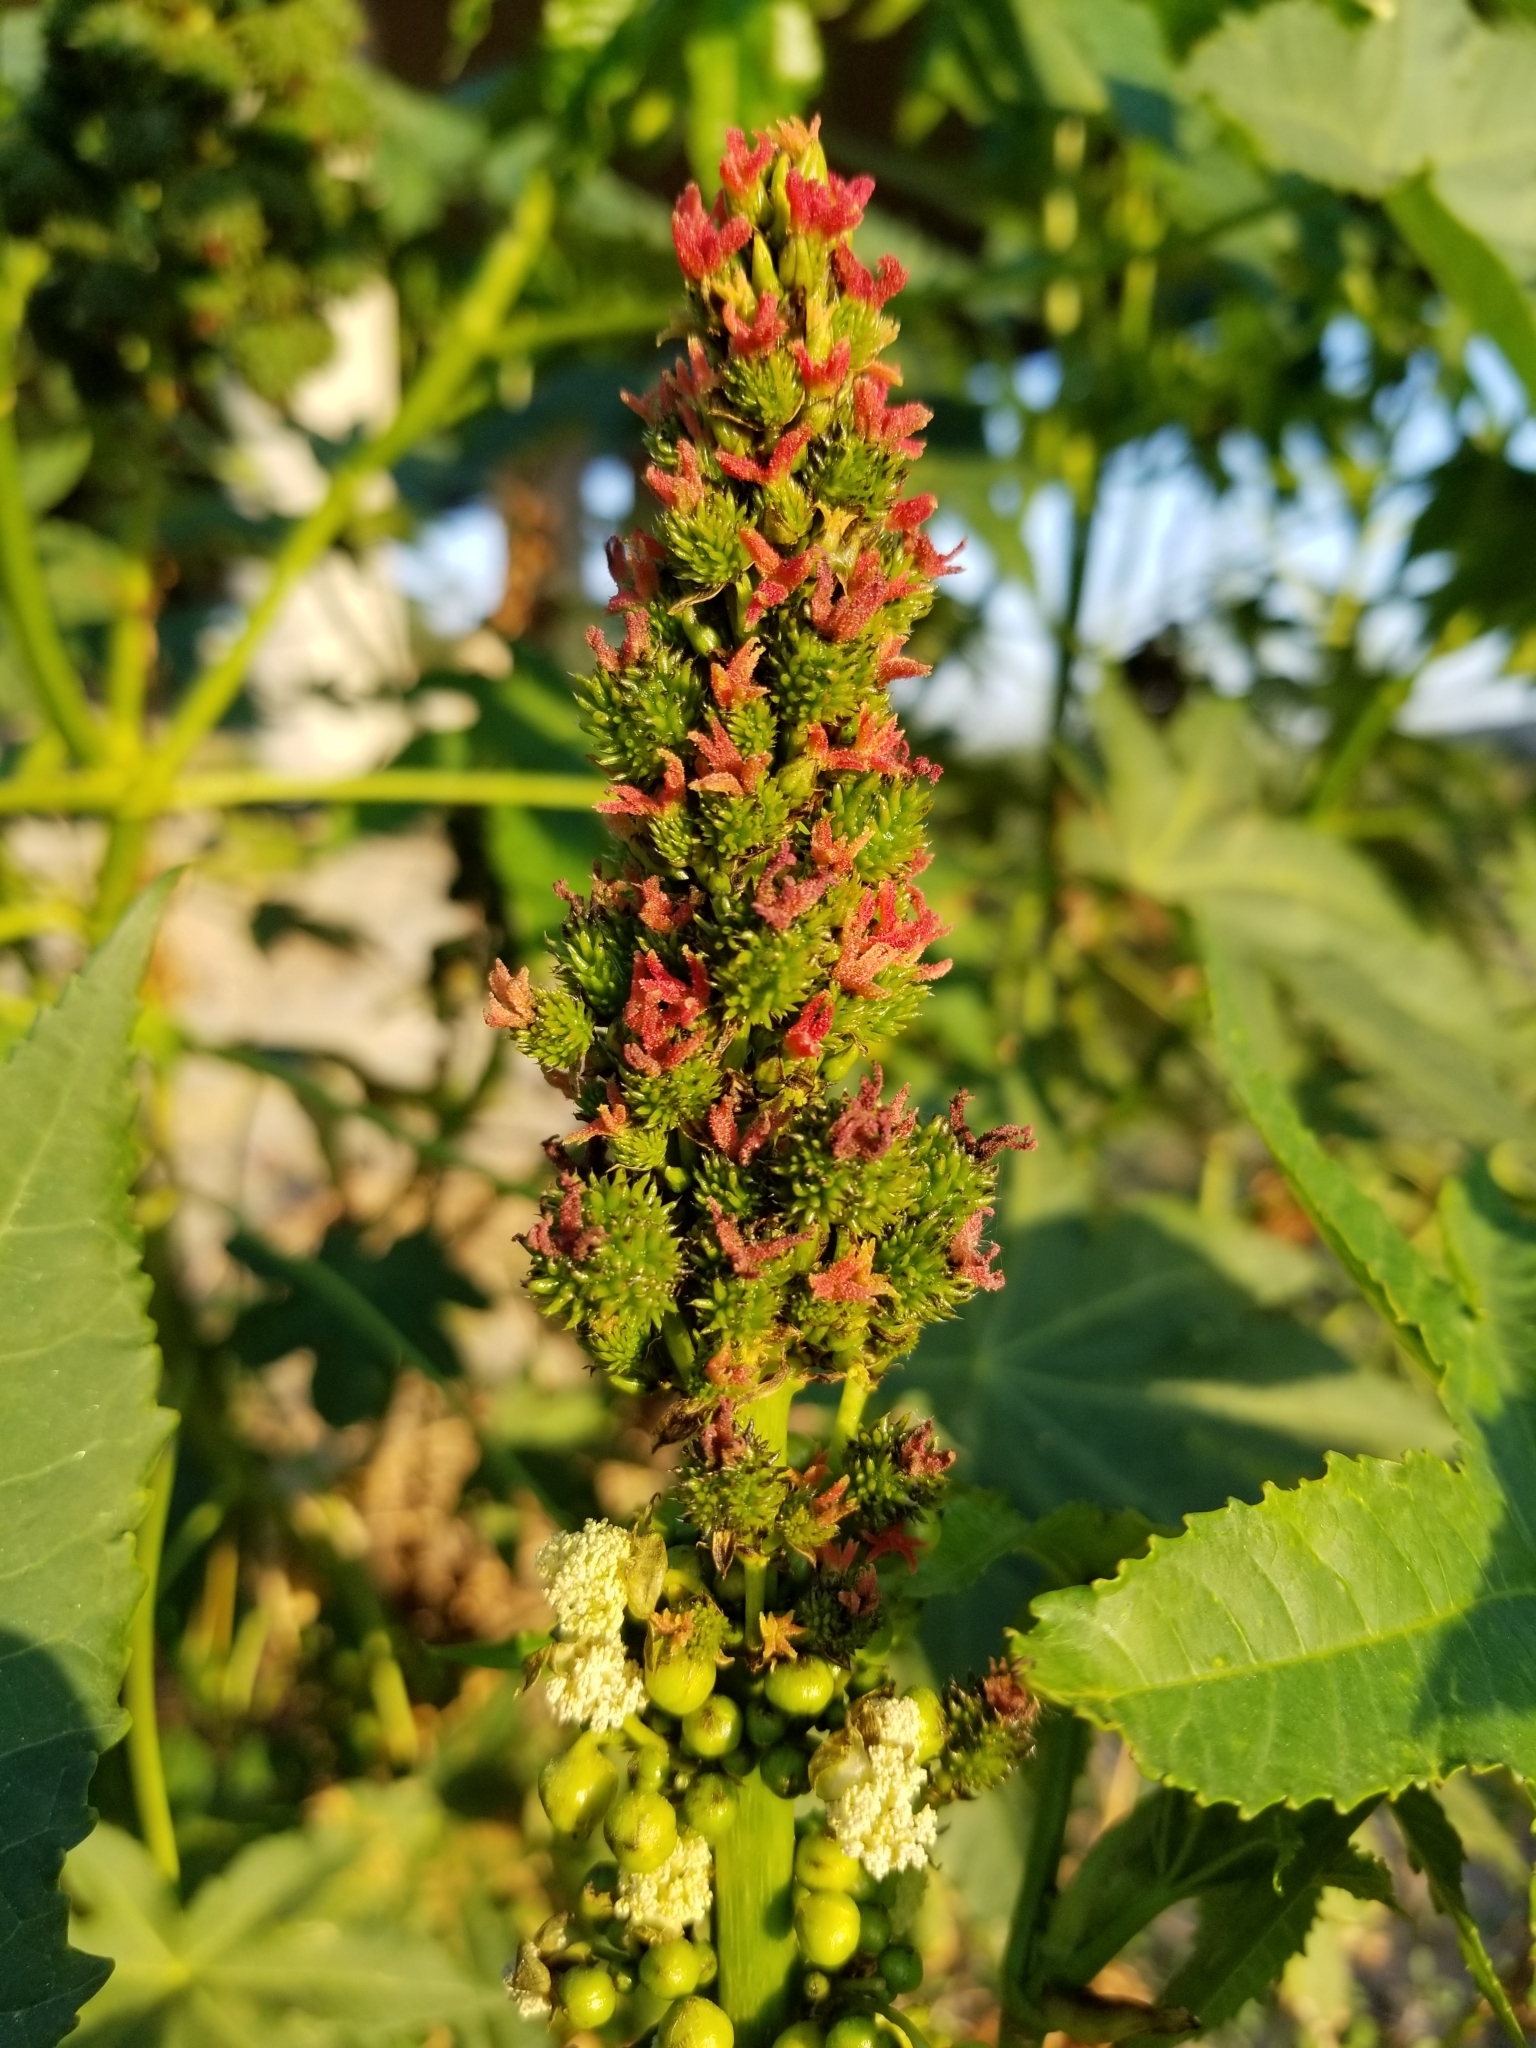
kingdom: Plantae
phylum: Tracheophyta
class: Magnoliopsida
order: Malpighiales
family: Euphorbiaceae
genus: Ricinus
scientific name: Ricinus communis
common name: Castor-oil-plant
